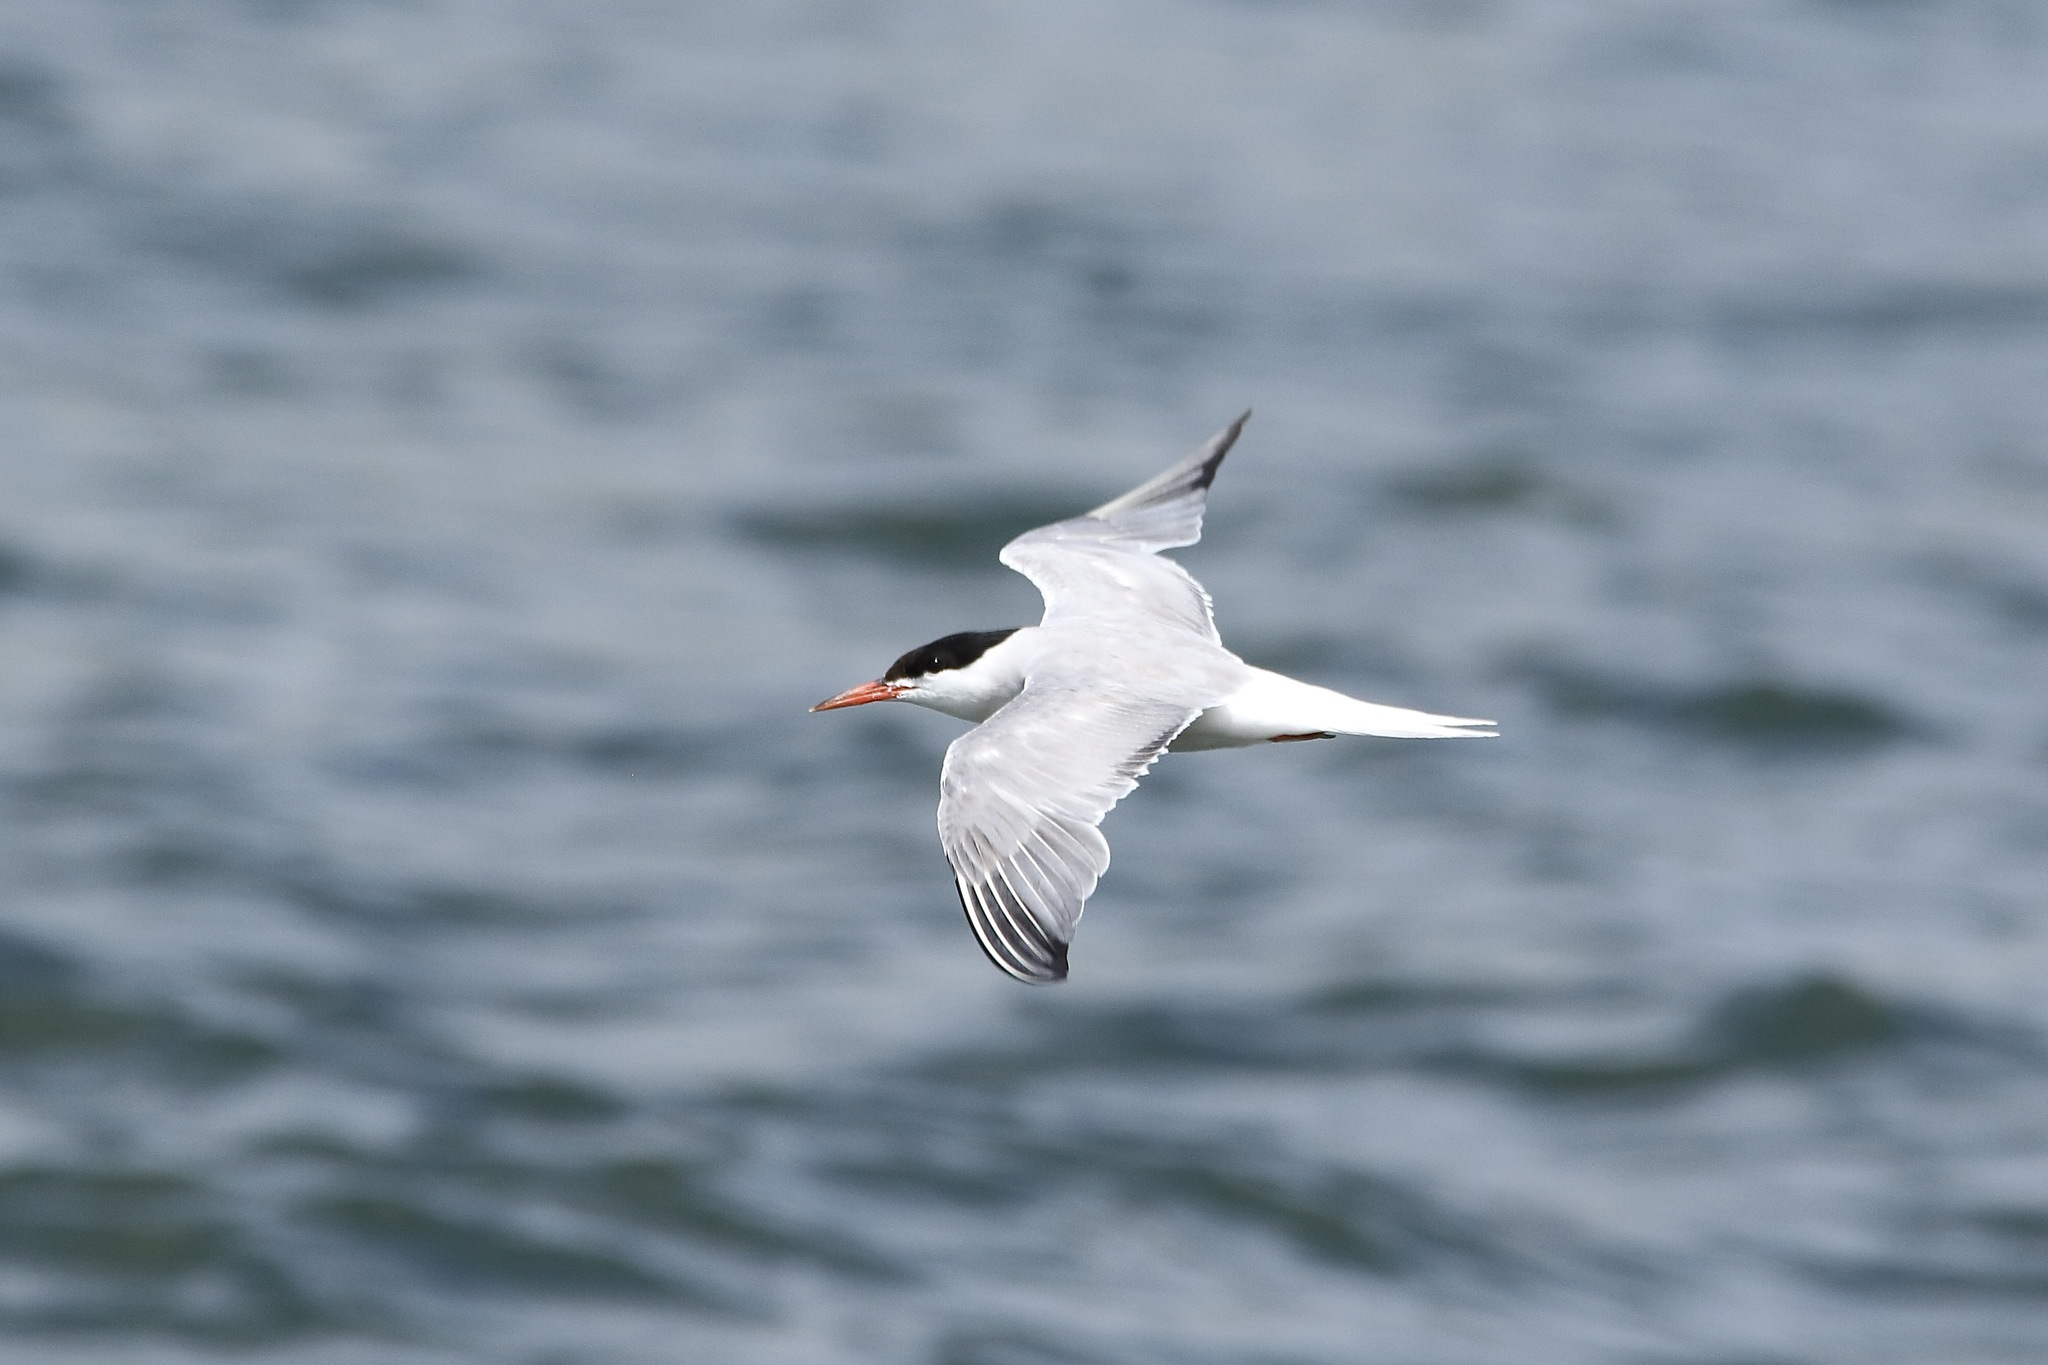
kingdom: Animalia
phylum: Chordata
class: Aves
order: Charadriiformes
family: Laridae
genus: Sterna
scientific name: Sterna hirundo
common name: Common tern
